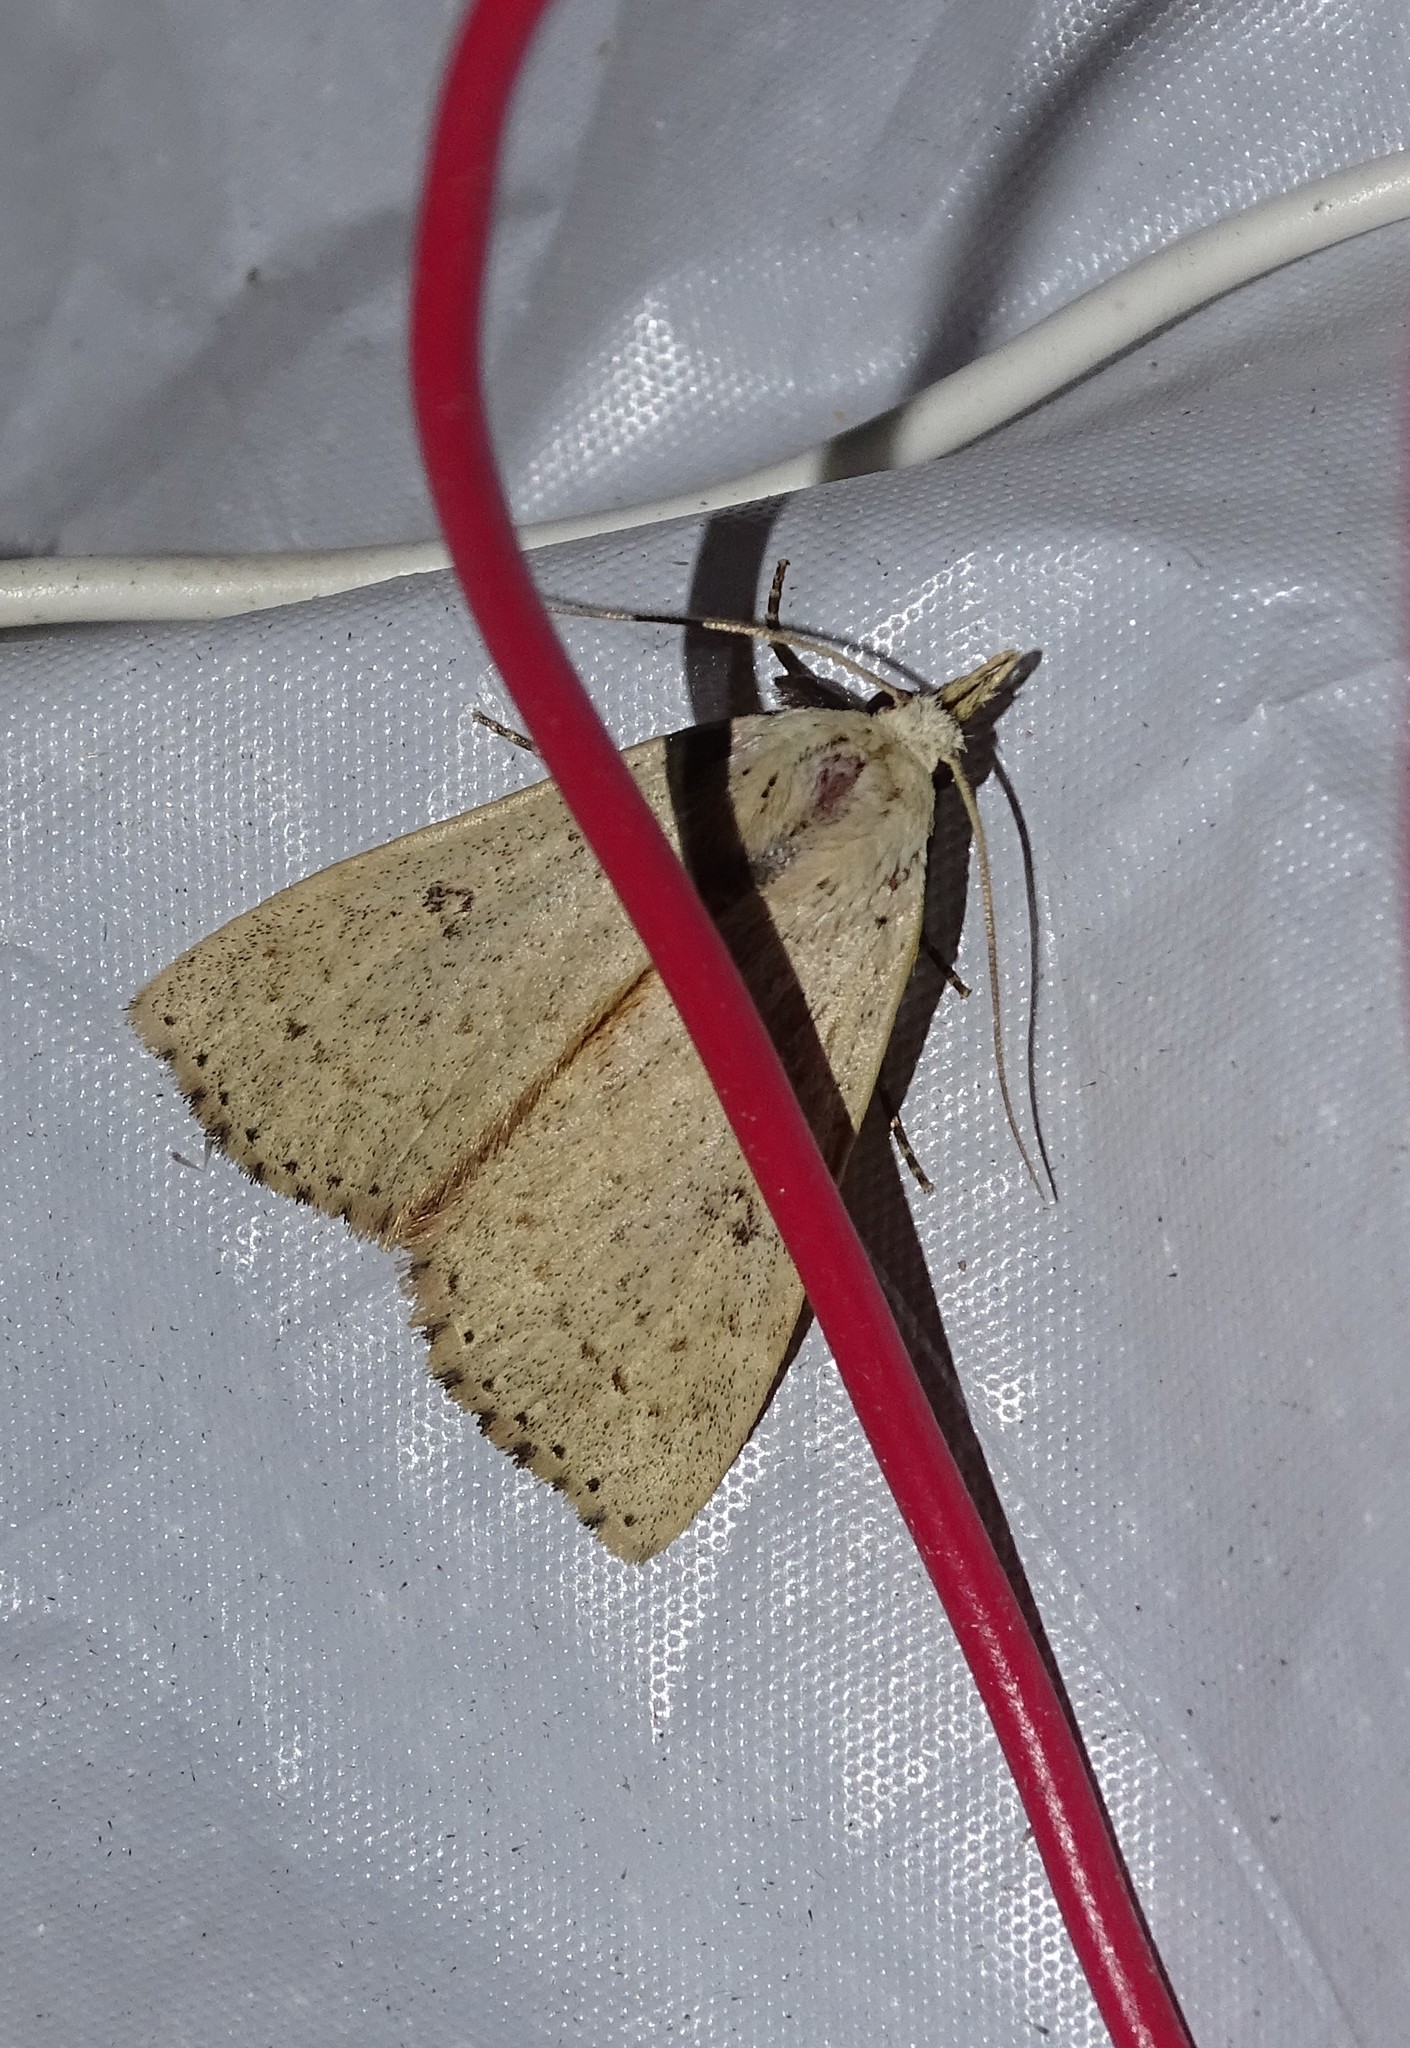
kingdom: Animalia
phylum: Arthropoda
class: Insecta
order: Lepidoptera
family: Erebidae
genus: Scolecocampa
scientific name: Scolecocampa liburna
